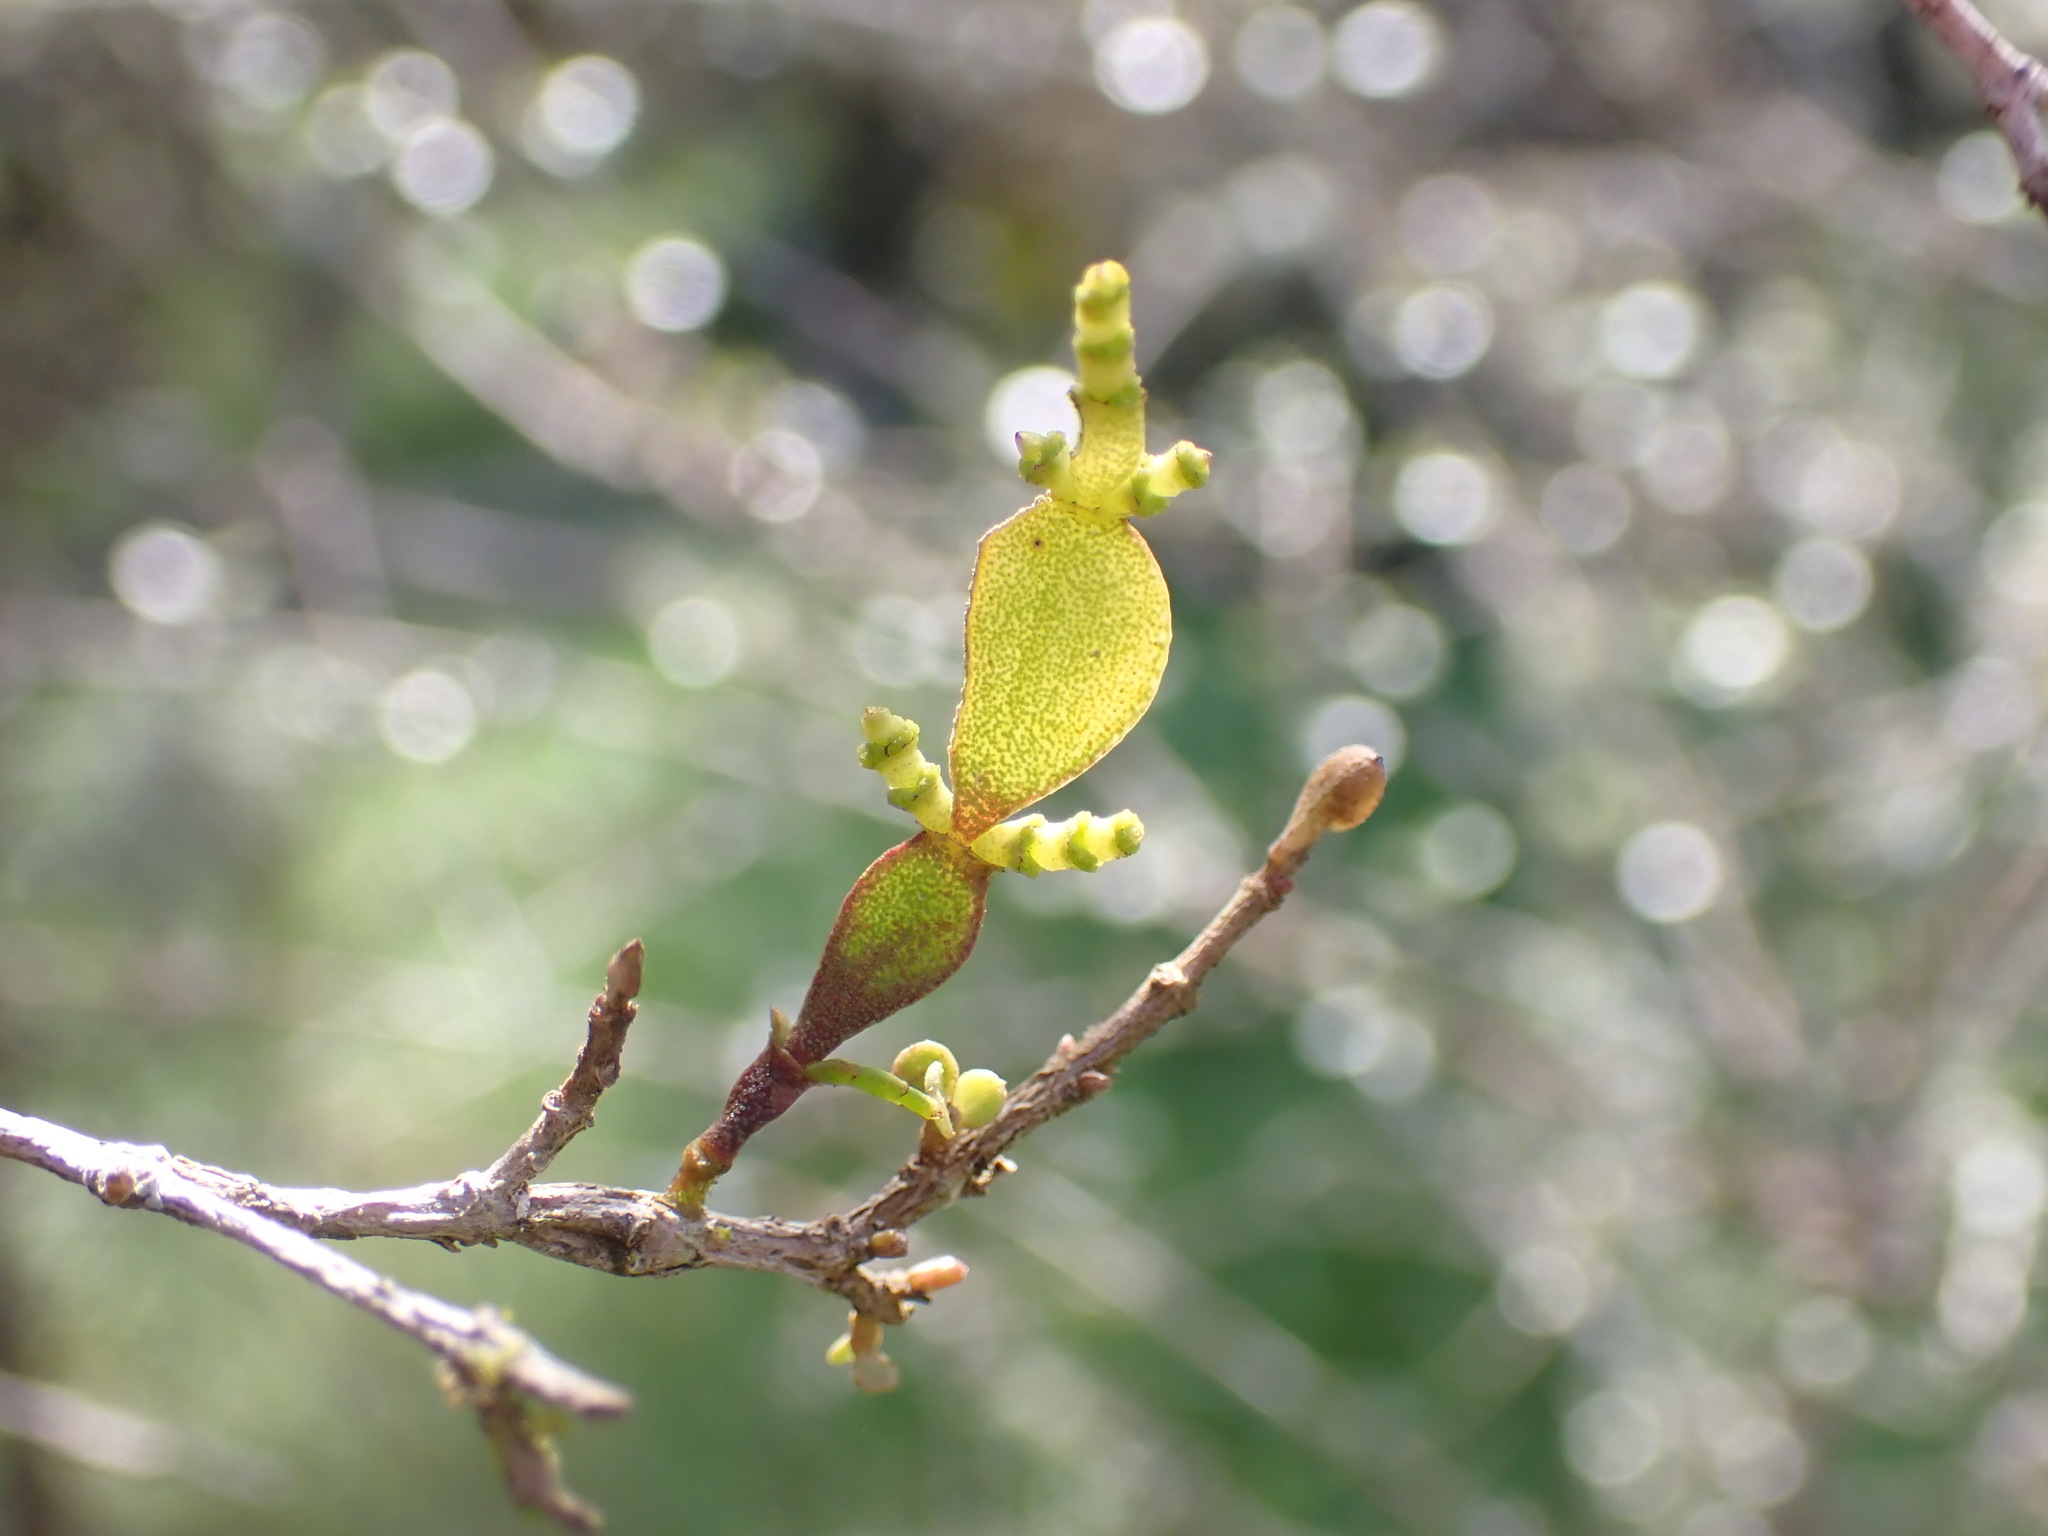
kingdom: Plantae
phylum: Tracheophyta
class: Magnoliopsida
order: Santalales
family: Viscaceae
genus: Korthalsella
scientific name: Korthalsella lindsayi
